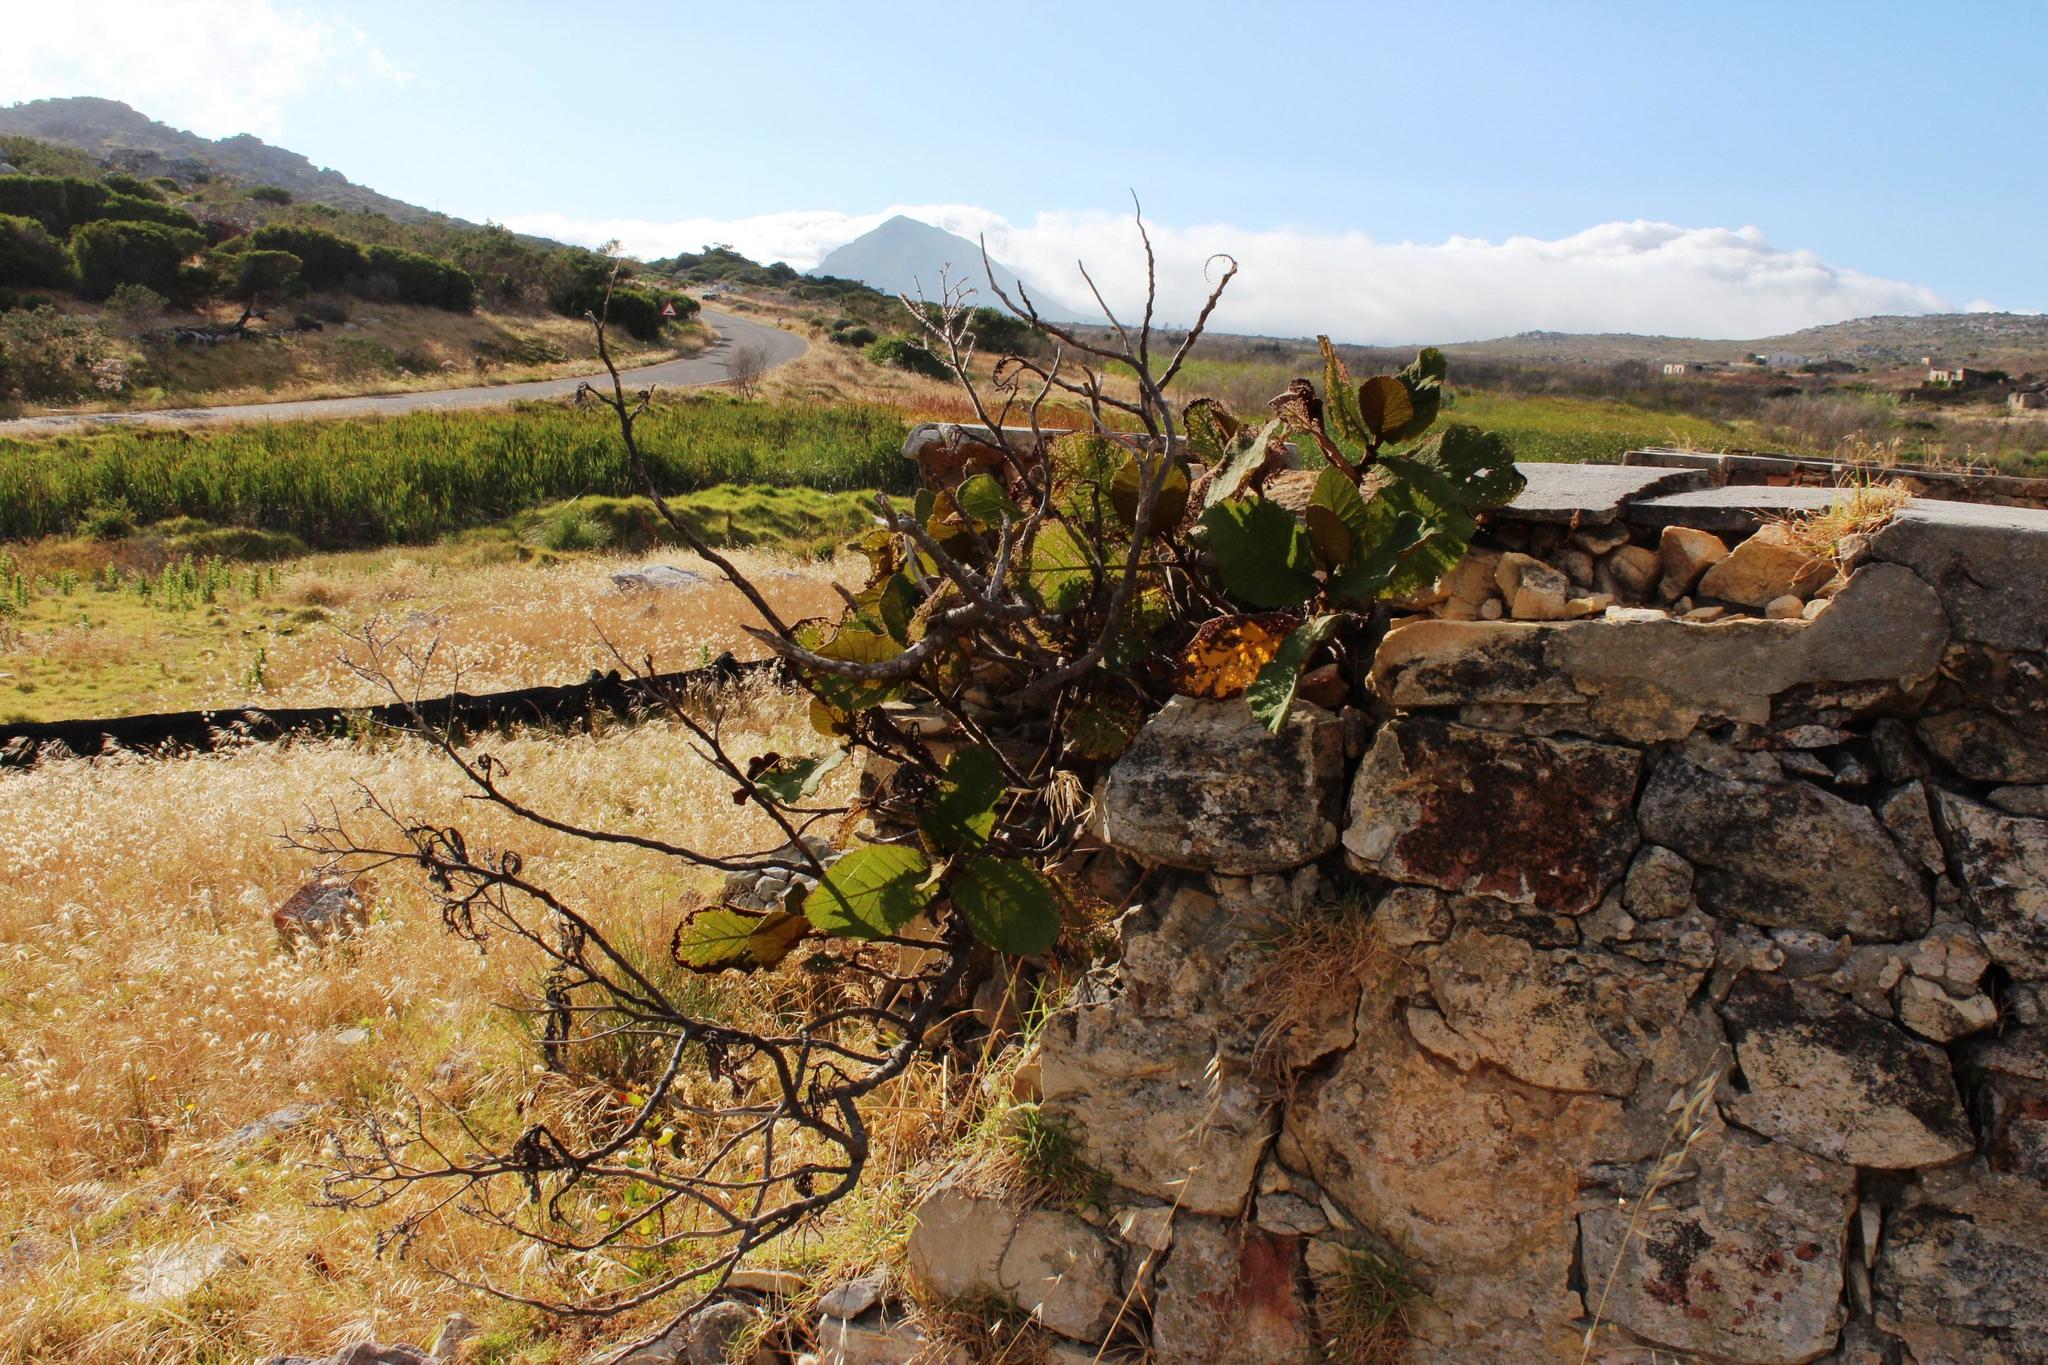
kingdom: Plantae
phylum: Tracheophyta
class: Magnoliopsida
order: Boraginales
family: Namaceae
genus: Wigandia
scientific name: Wigandia urens
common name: Caracus wigandia
